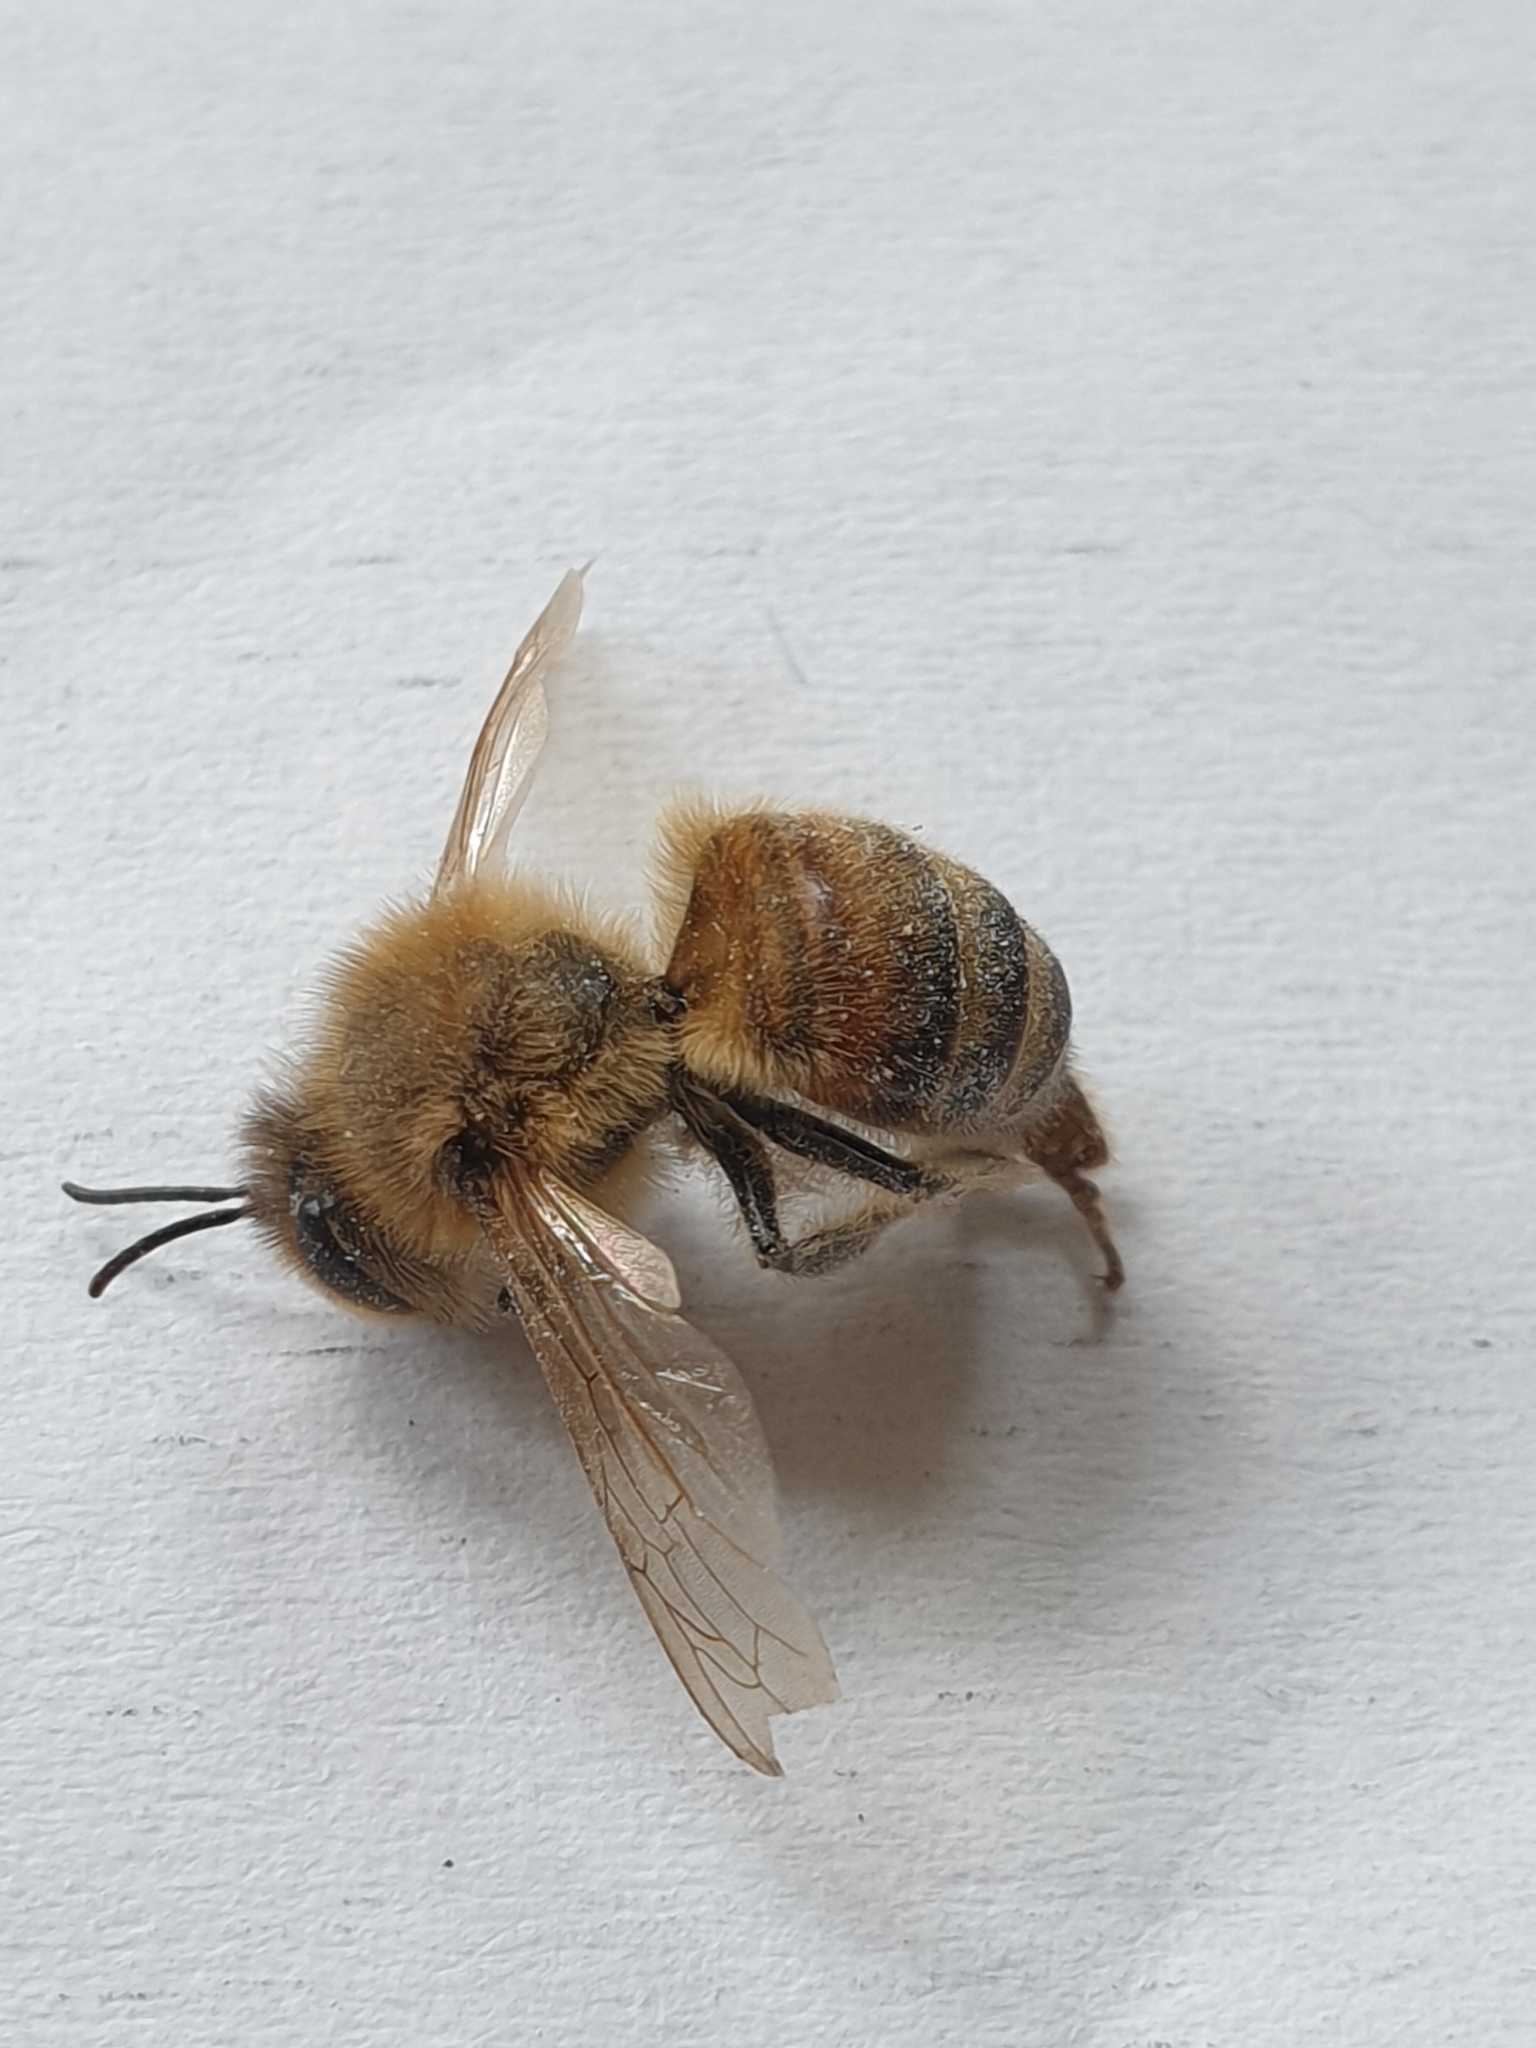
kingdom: Animalia
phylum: Arthropoda
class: Insecta
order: Hymenoptera
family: Apidae
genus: Apis
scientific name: Apis mellifera
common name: Honey bee
